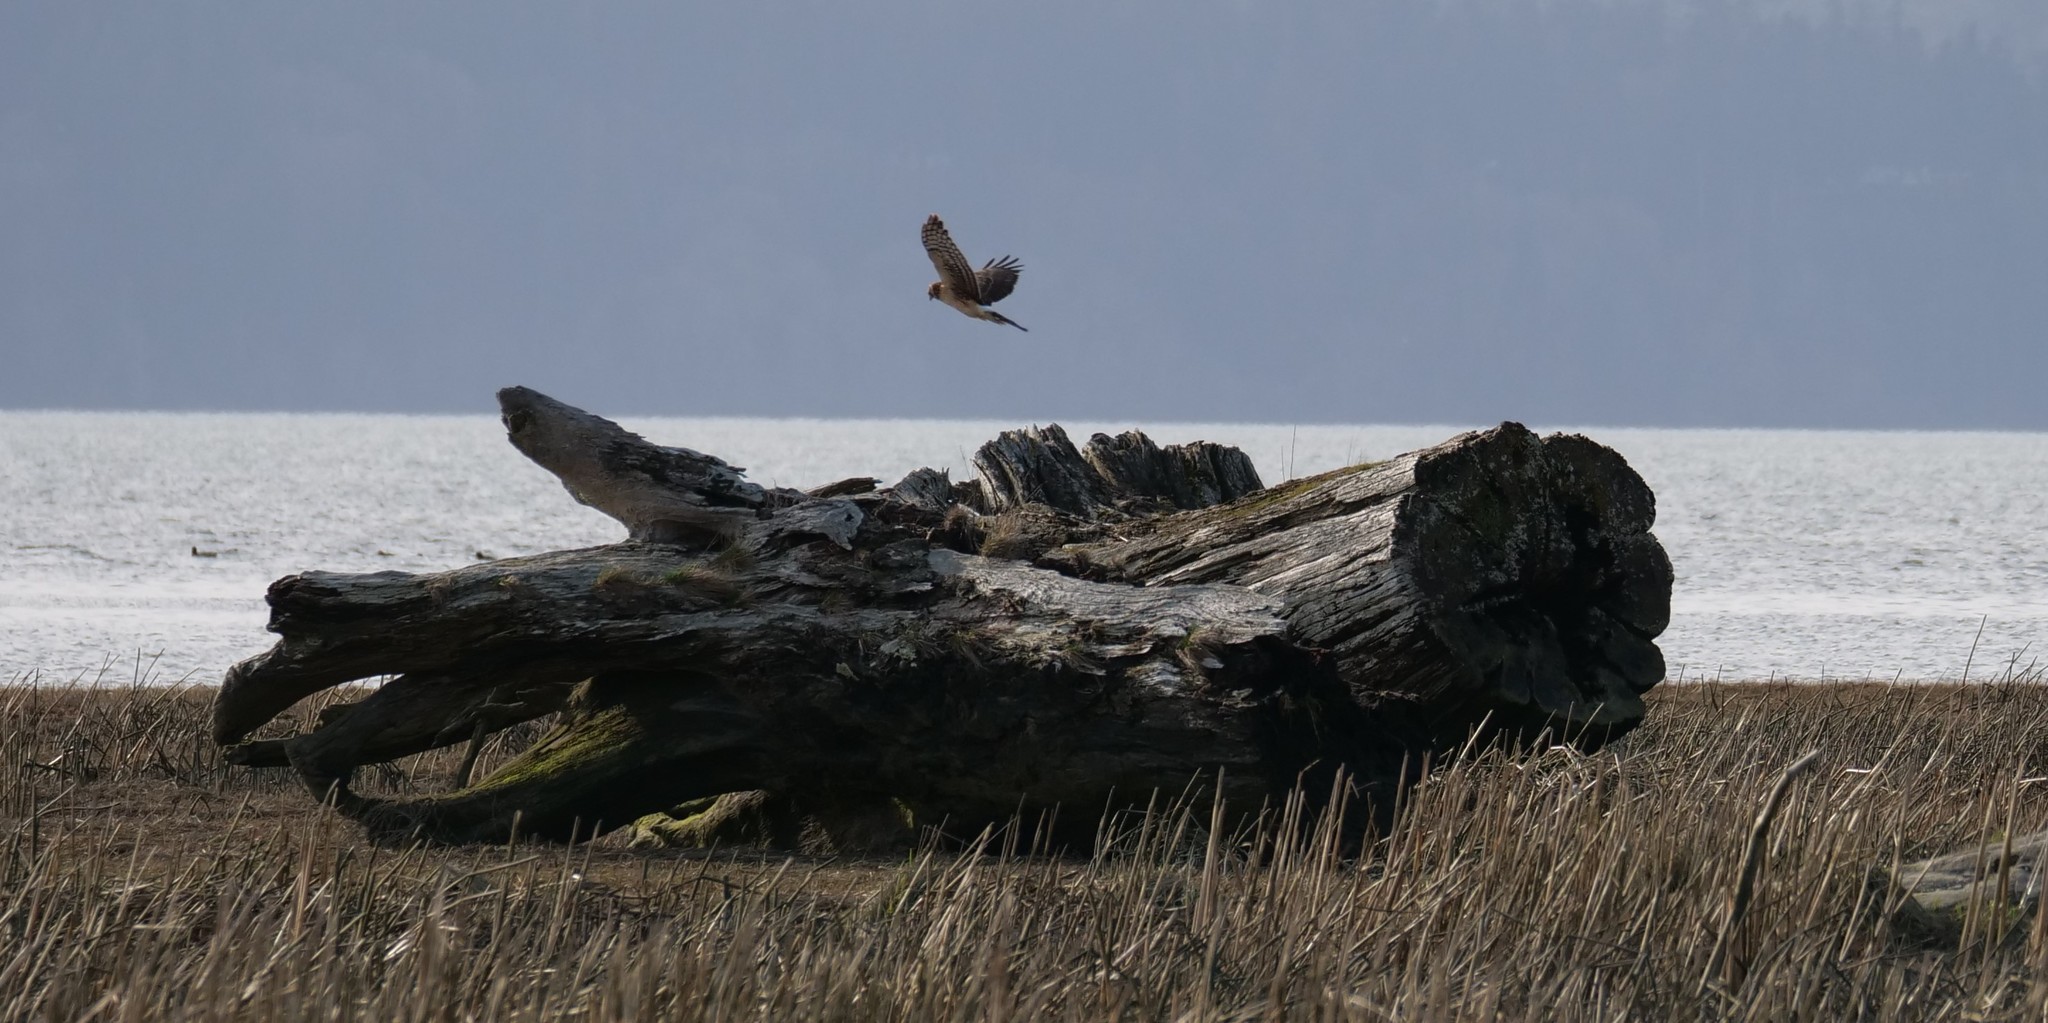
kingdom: Animalia
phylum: Chordata
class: Aves
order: Accipitriformes
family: Accipitridae
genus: Circus
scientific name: Circus cyaneus
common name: Hen harrier
